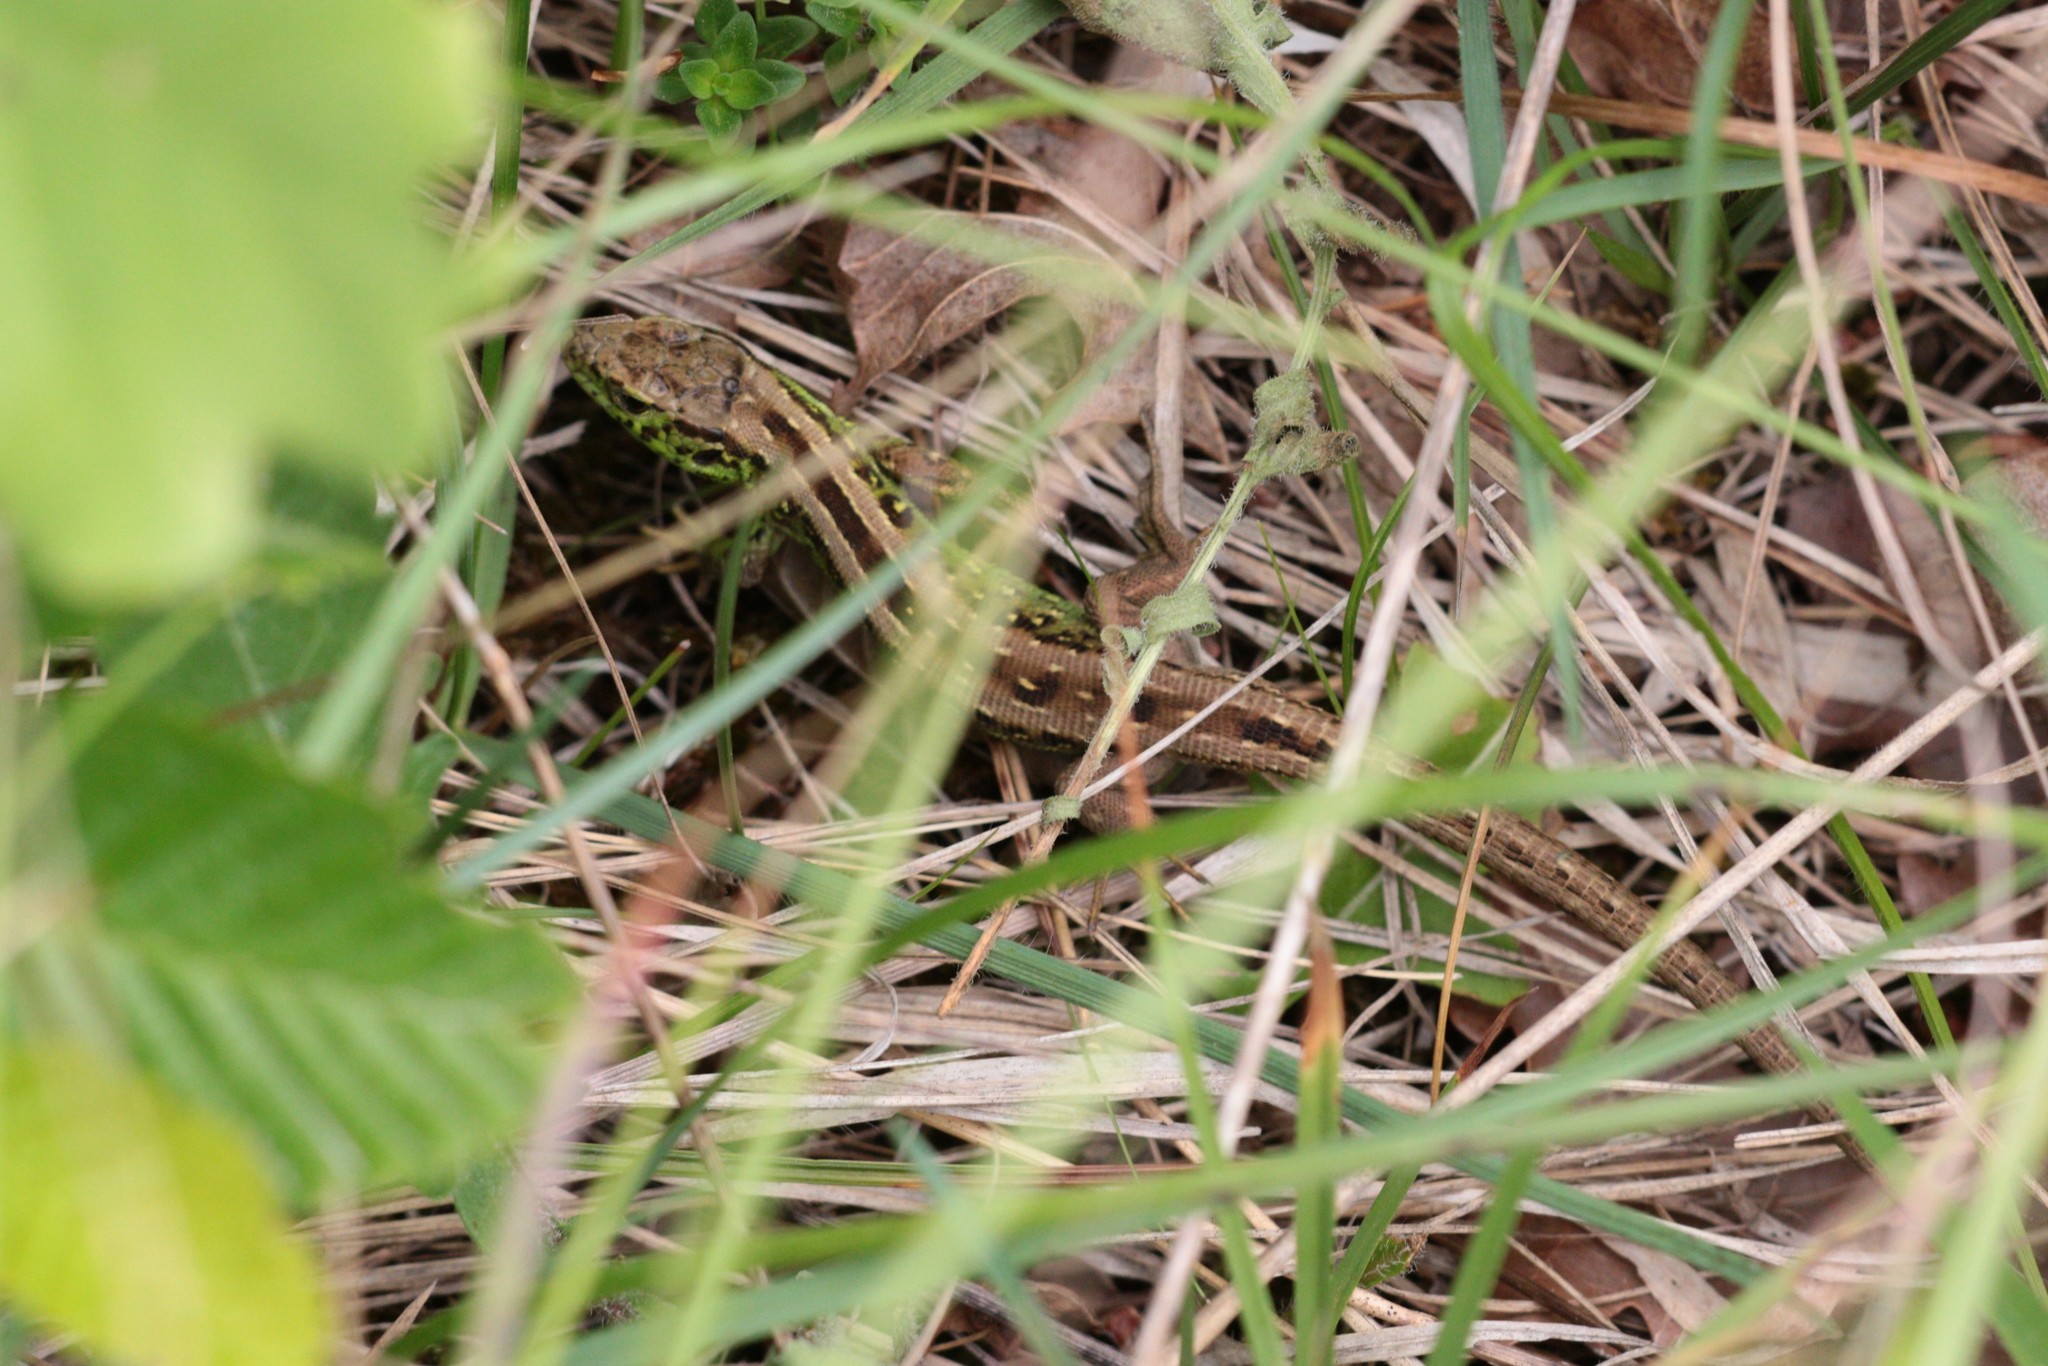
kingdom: Animalia
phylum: Chordata
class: Squamata
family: Lacertidae
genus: Lacerta
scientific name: Lacerta agilis
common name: Sand lizard
